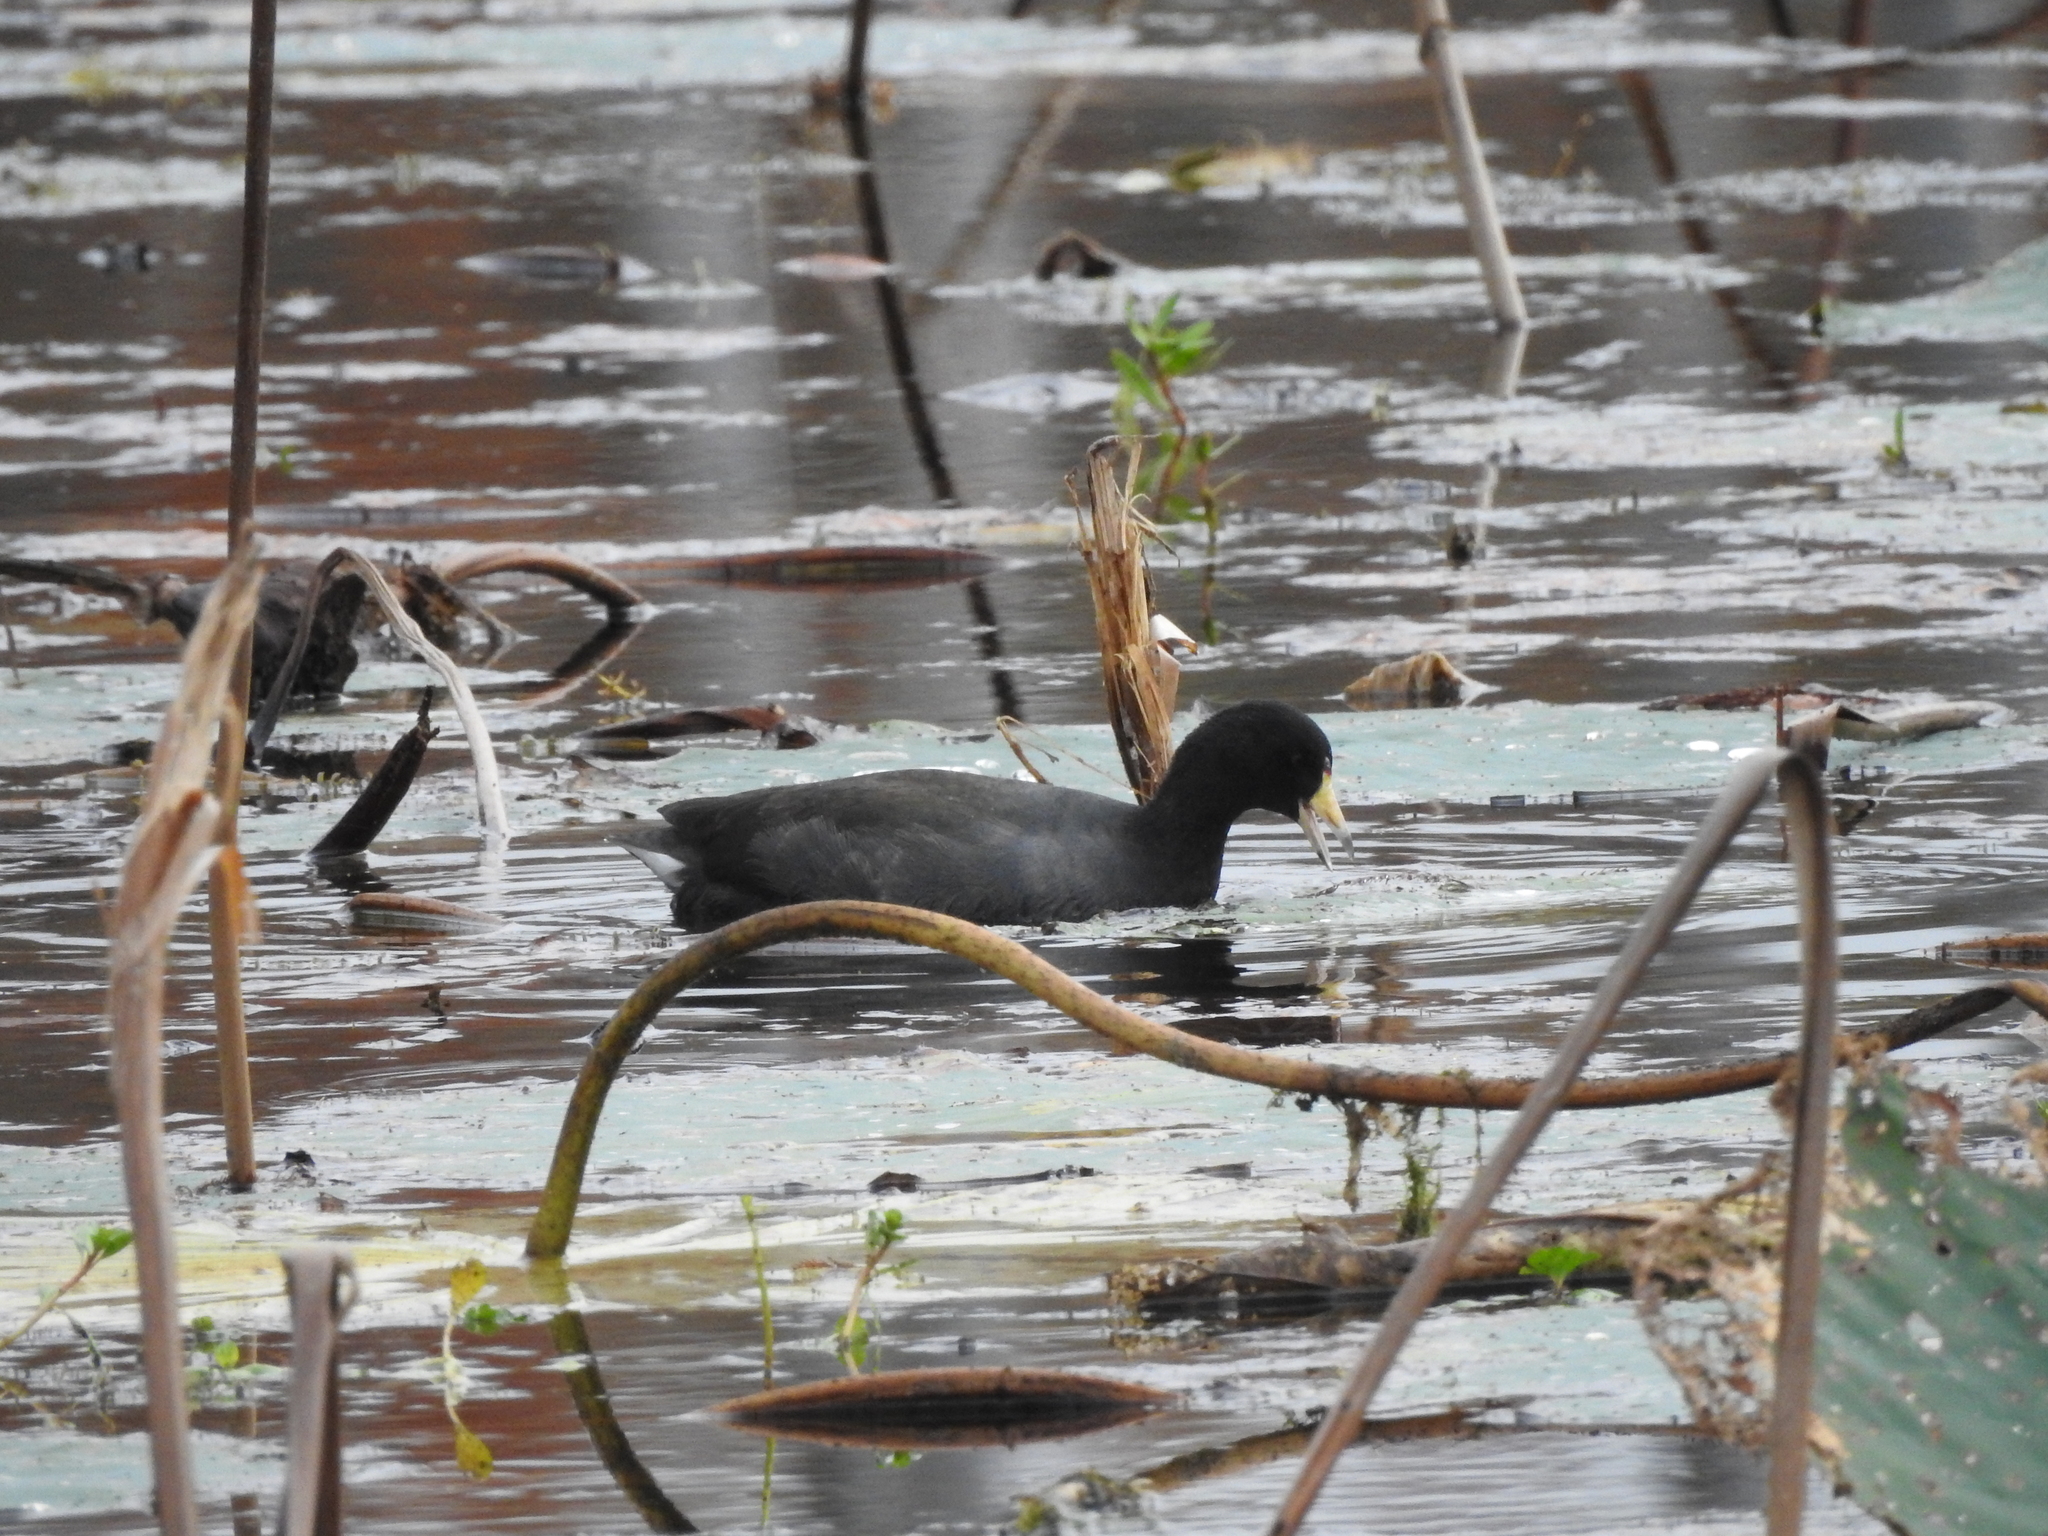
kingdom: Animalia
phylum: Chordata
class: Aves
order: Gruiformes
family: Rallidae
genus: Fulica
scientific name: Fulica americana
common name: American coot
